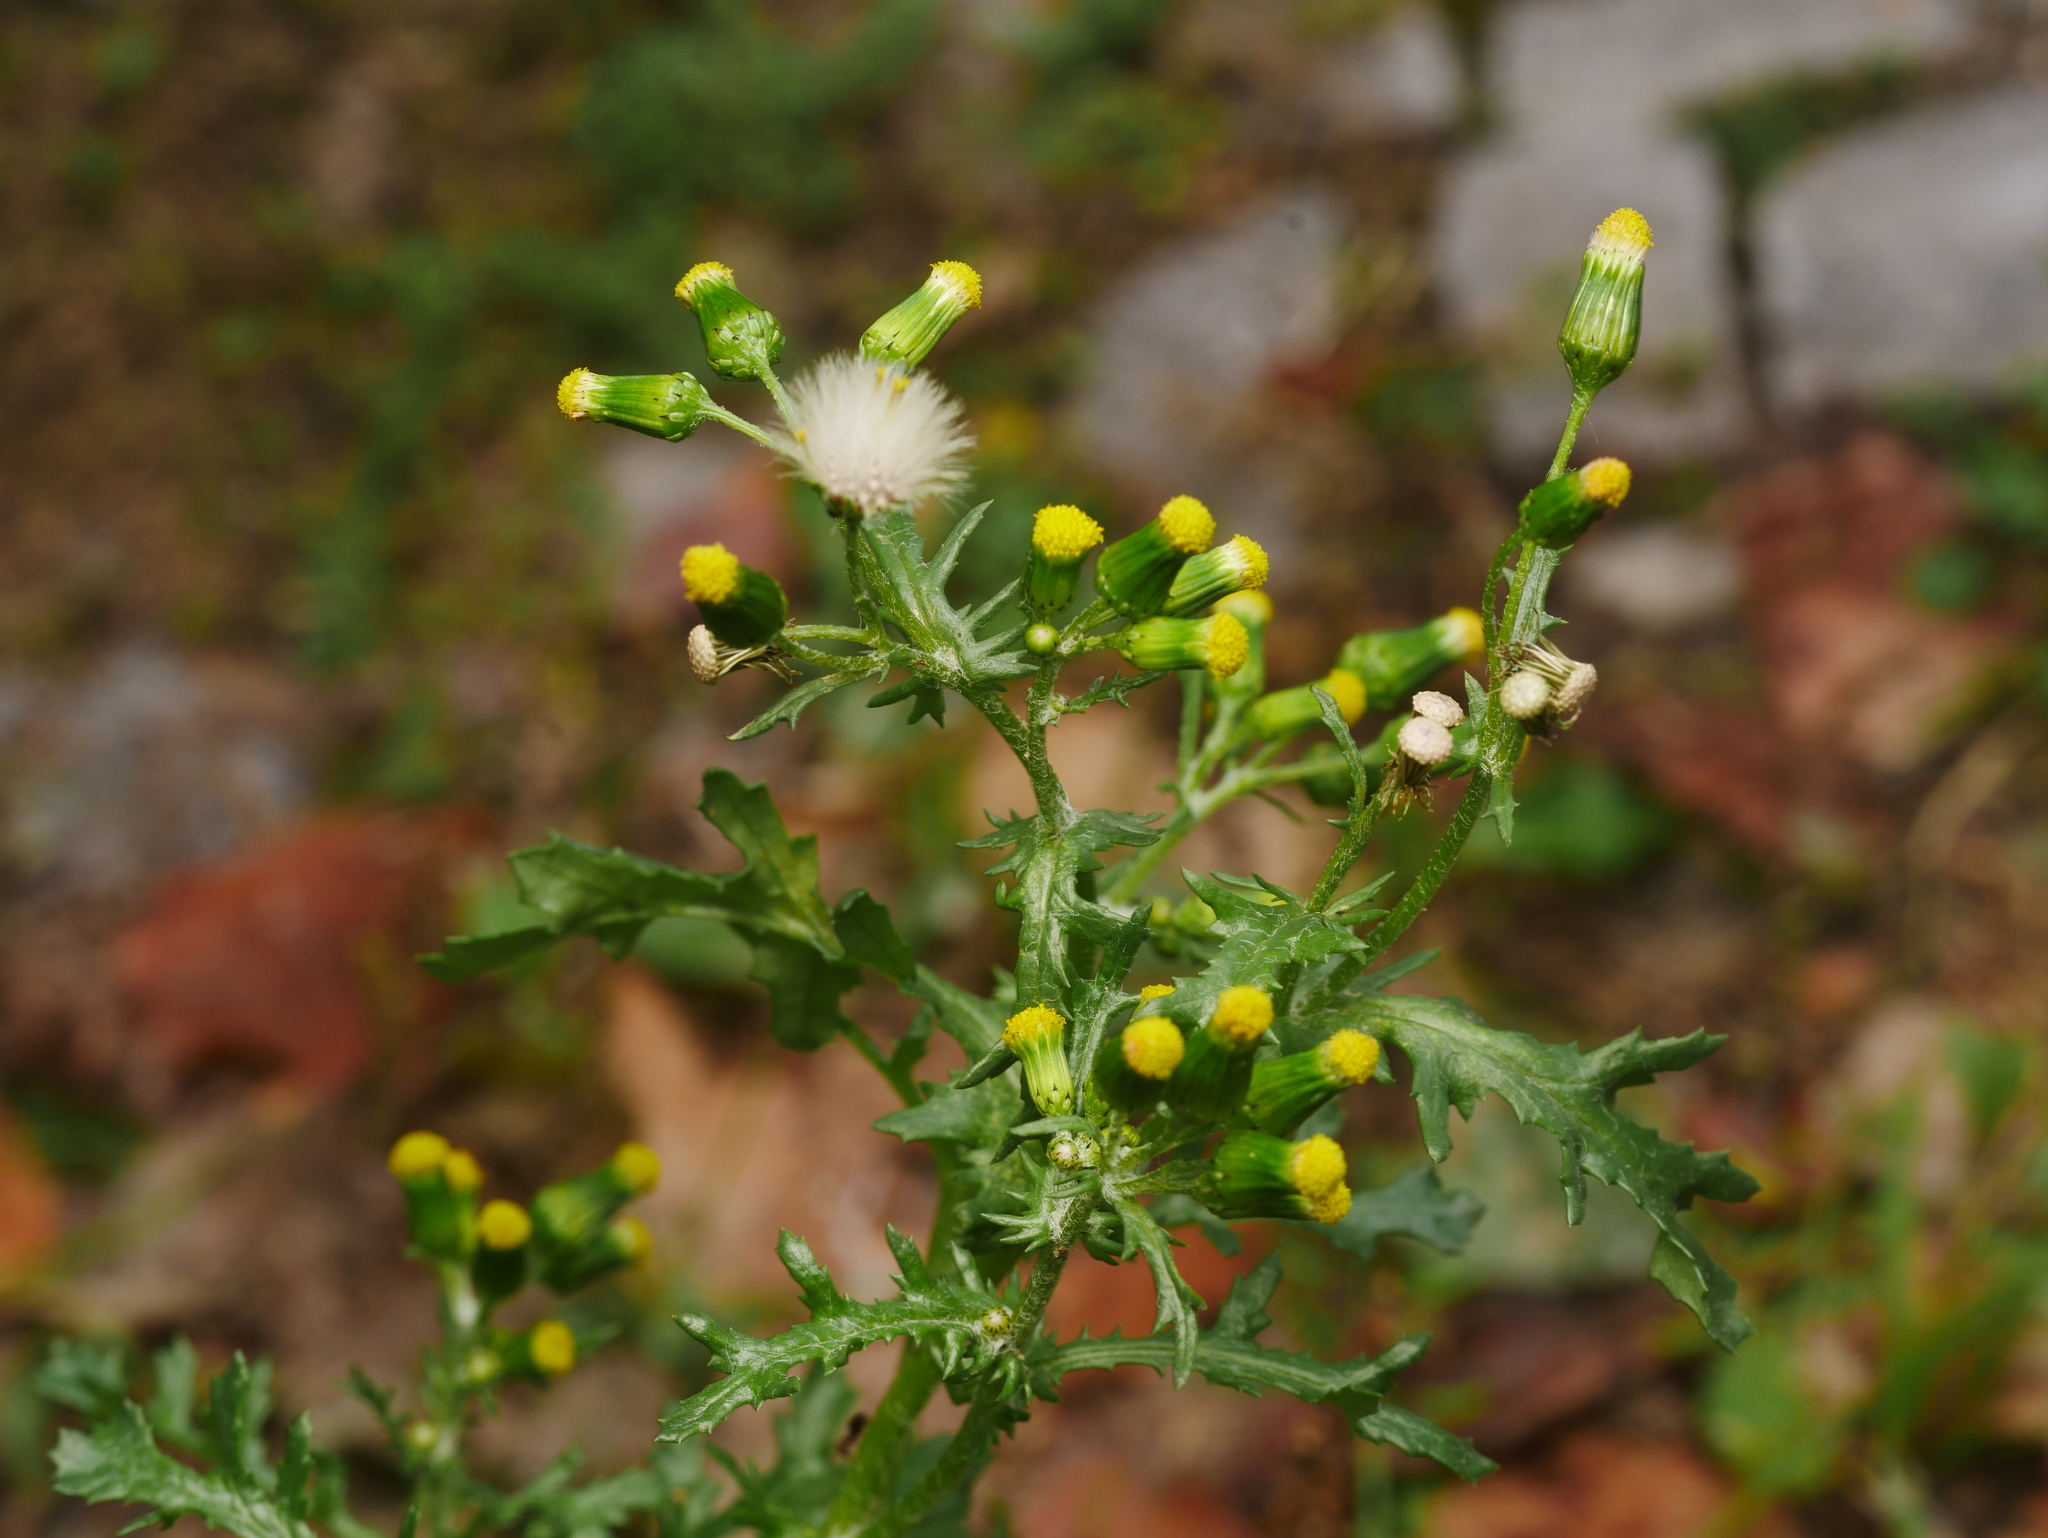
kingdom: Plantae
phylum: Tracheophyta
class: Magnoliopsida
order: Asterales
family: Asteraceae
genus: Senecio
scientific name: Senecio vulgaris
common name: Old-man-in-the-spring
